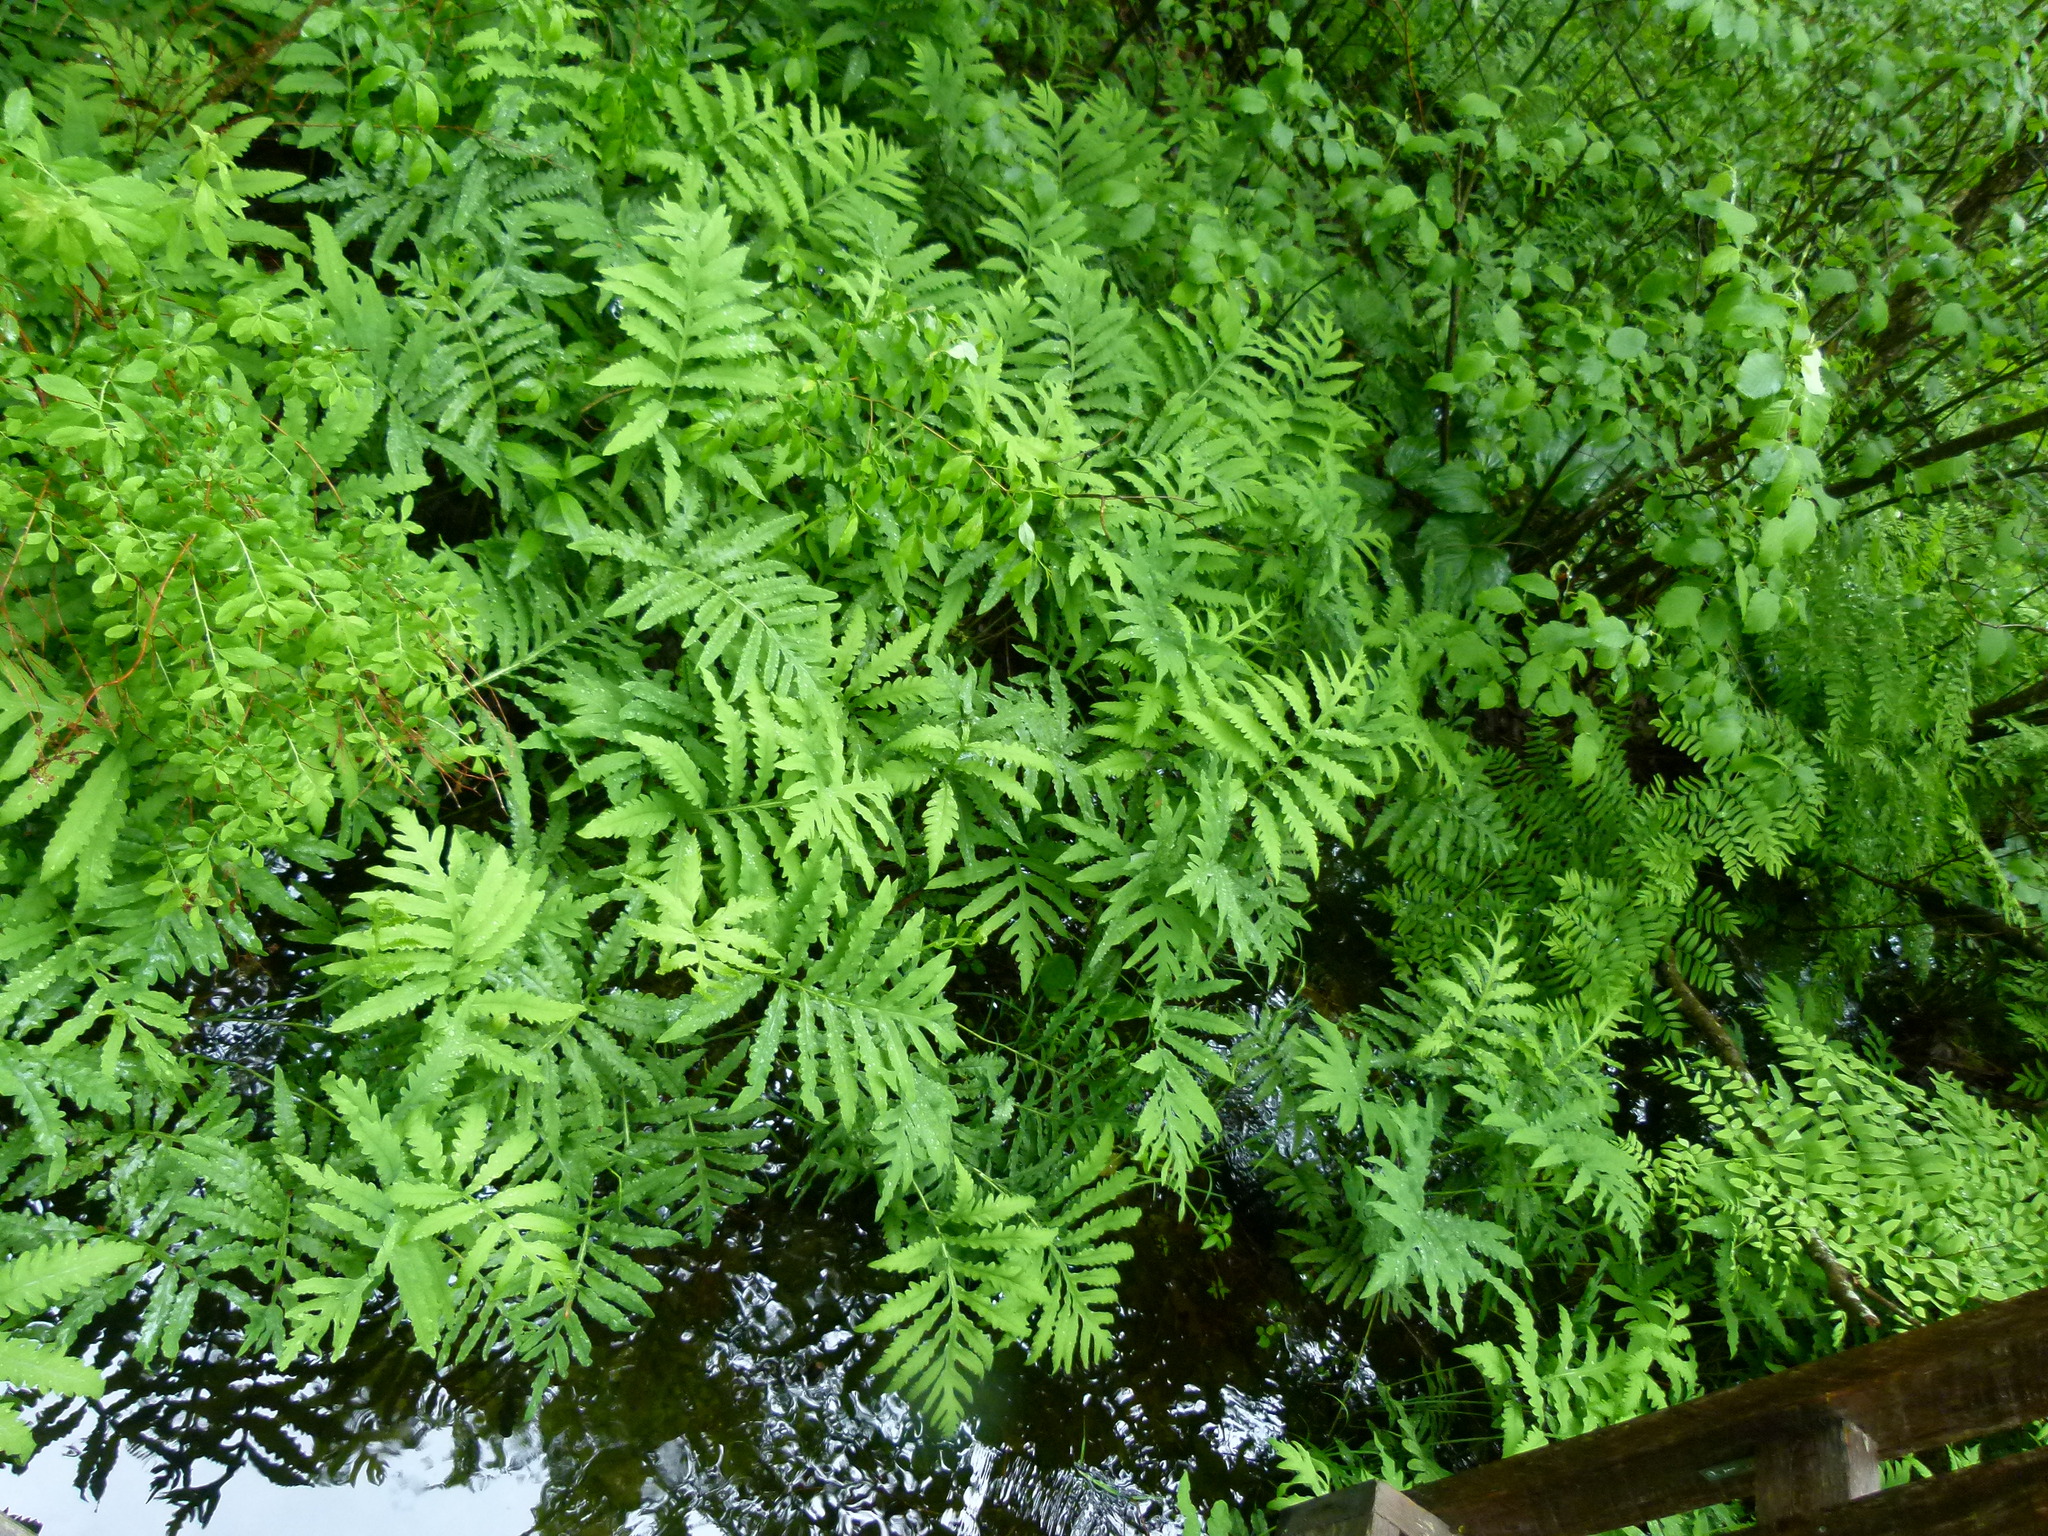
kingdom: Plantae
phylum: Tracheophyta
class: Polypodiopsida
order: Polypodiales
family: Onocleaceae
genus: Onoclea
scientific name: Onoclea sensibilis
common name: Sensitive fern
